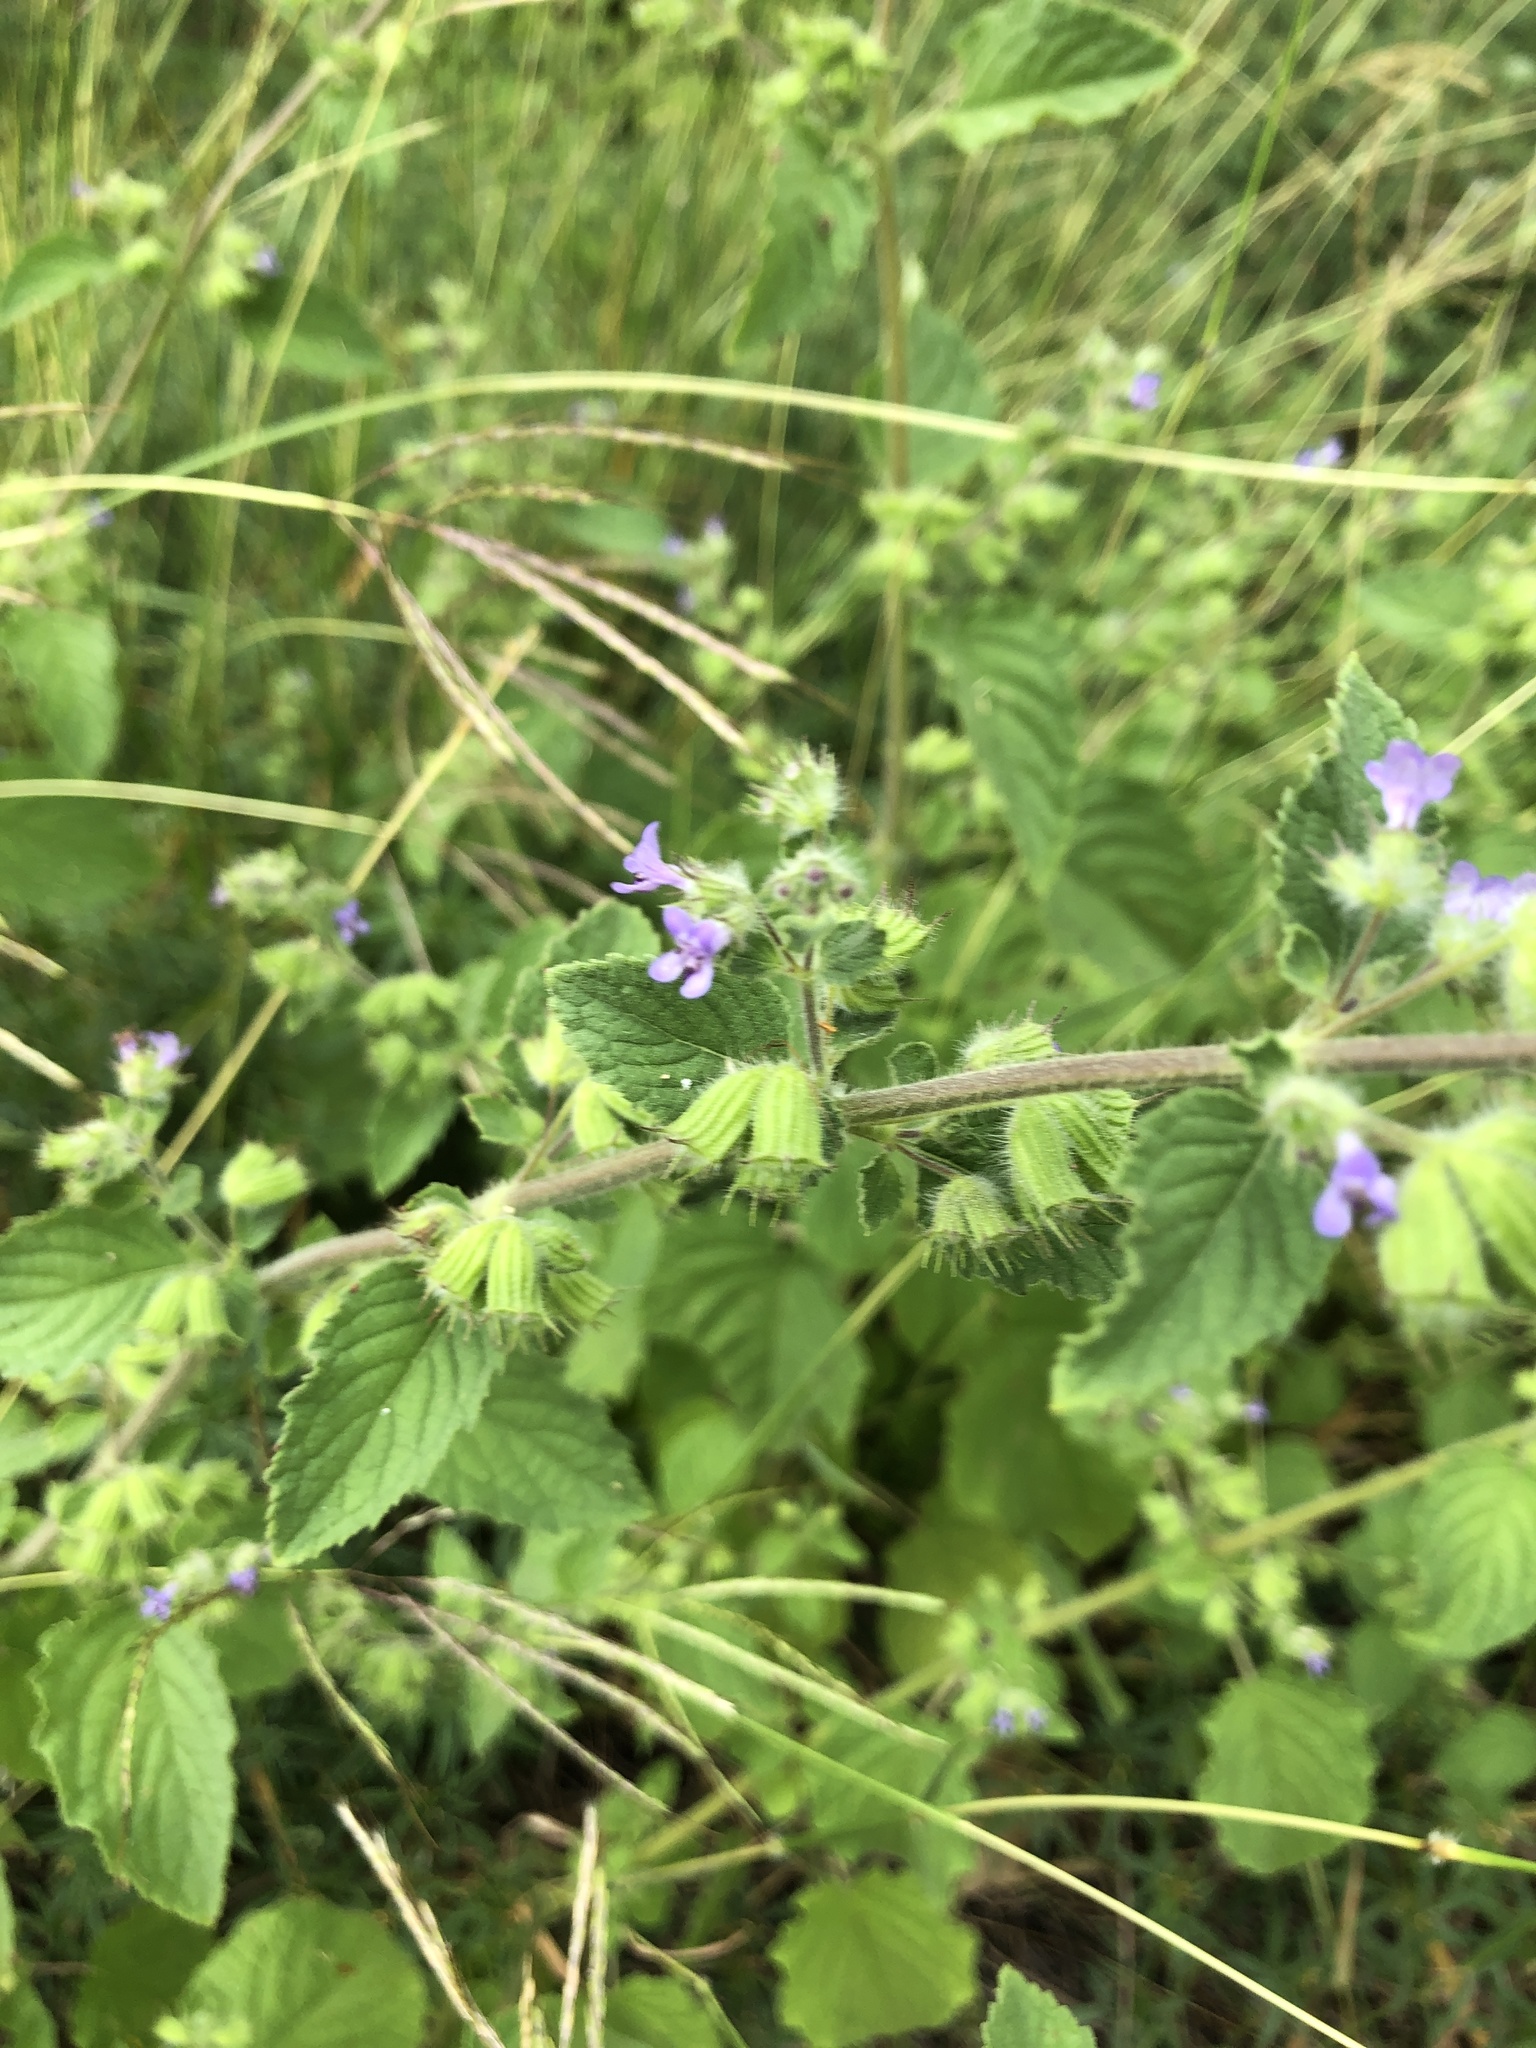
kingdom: Plantae
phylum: Tracheophyta
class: Magnoliopsida
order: Lamiales
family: Lamiaceae
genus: Mesosphaerum
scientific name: Mesosphaerum suaveolens
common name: Pignut
